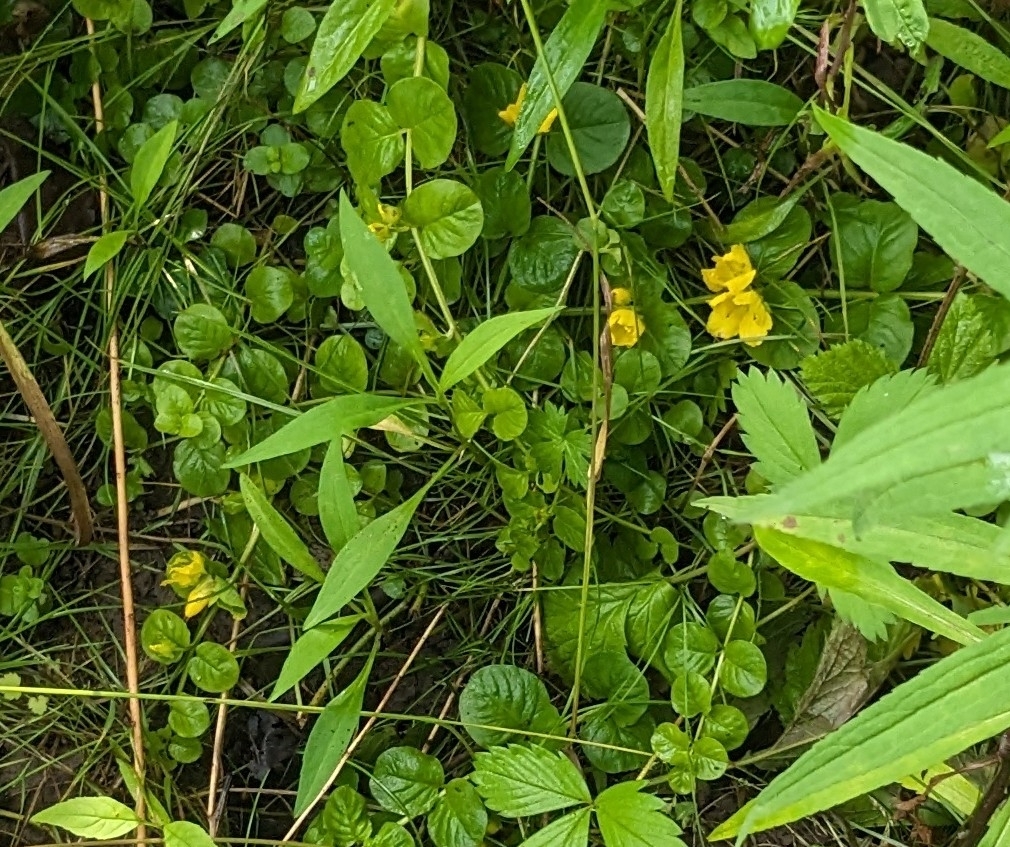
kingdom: Plantae
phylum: Tracheophyta
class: Magnoliopsida
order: Ericales
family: Primulaceae
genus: Lysimachia
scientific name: Lysimachia nummularia
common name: Moneywort
